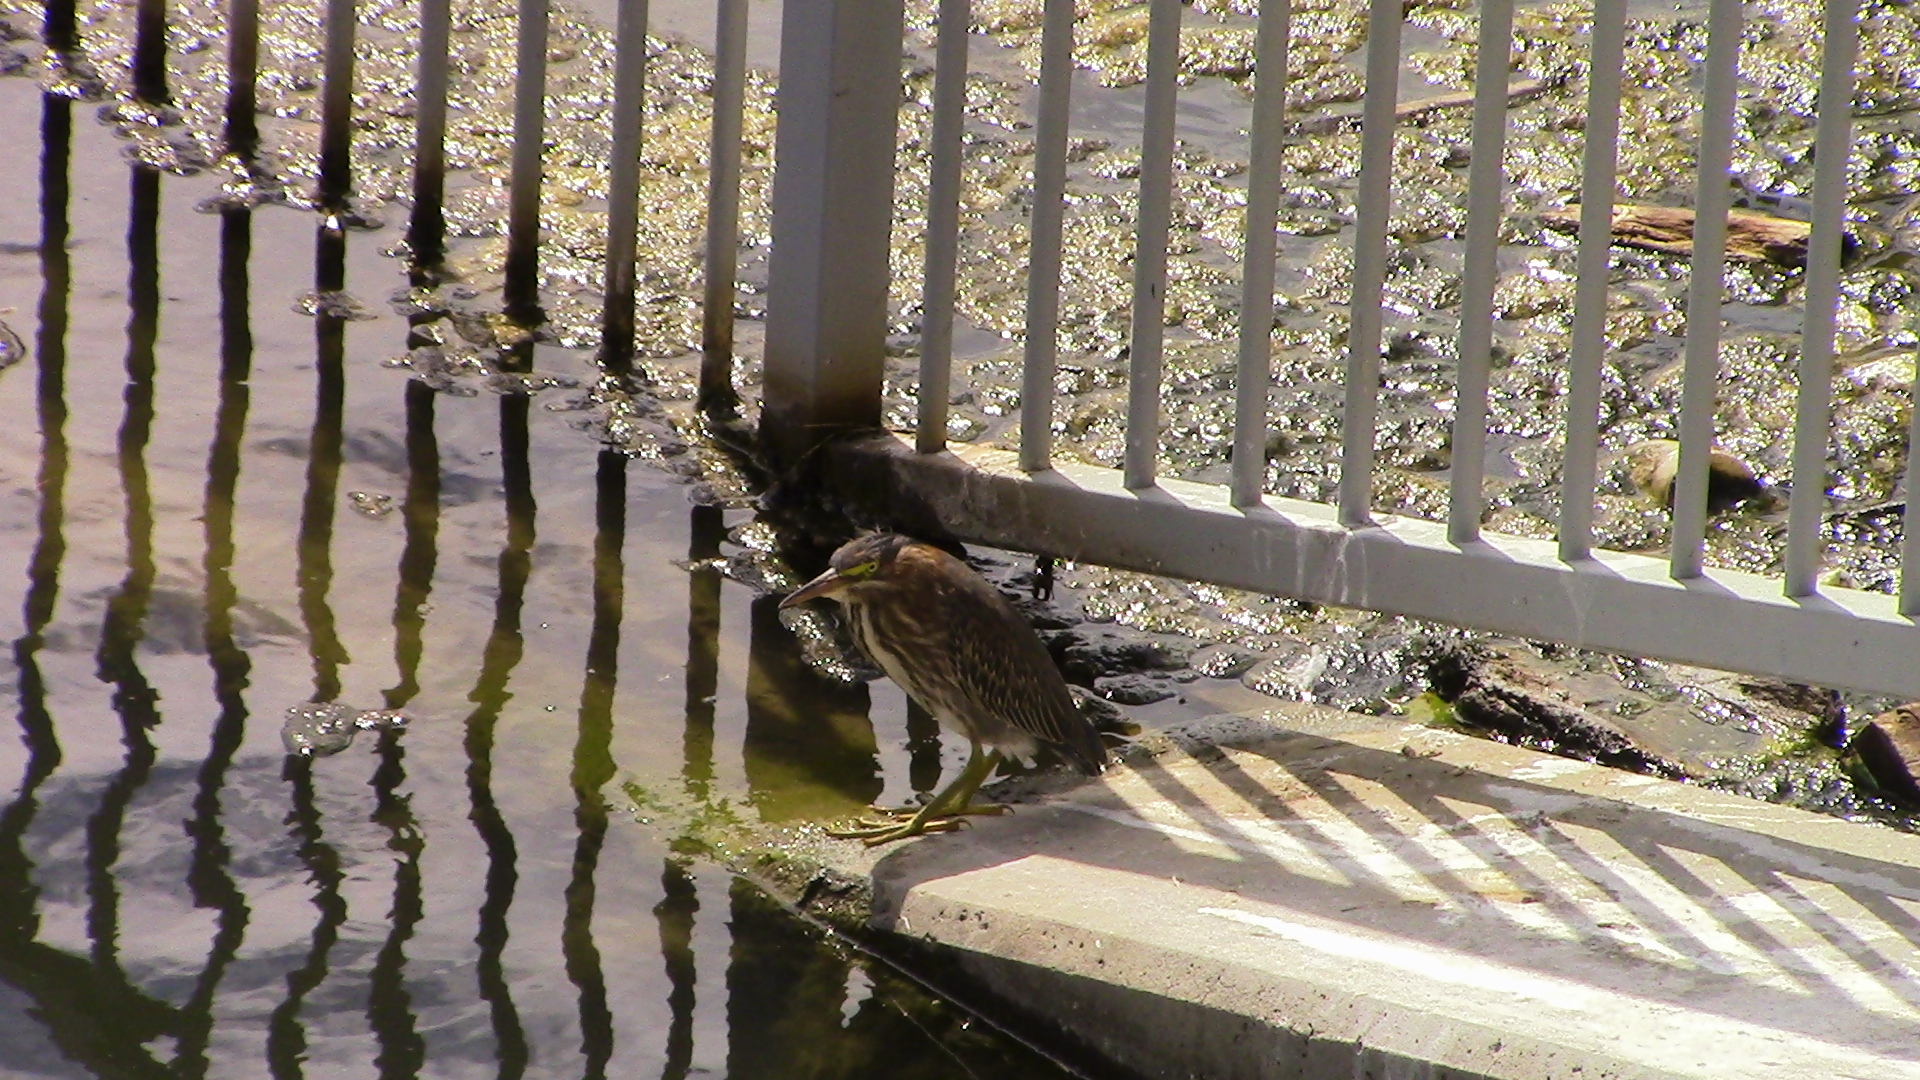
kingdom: Animalia
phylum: Chordata
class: Aves
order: Pelecaniformes
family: Ardeidae
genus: Butorides
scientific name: Butorides virescens
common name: Green heron
